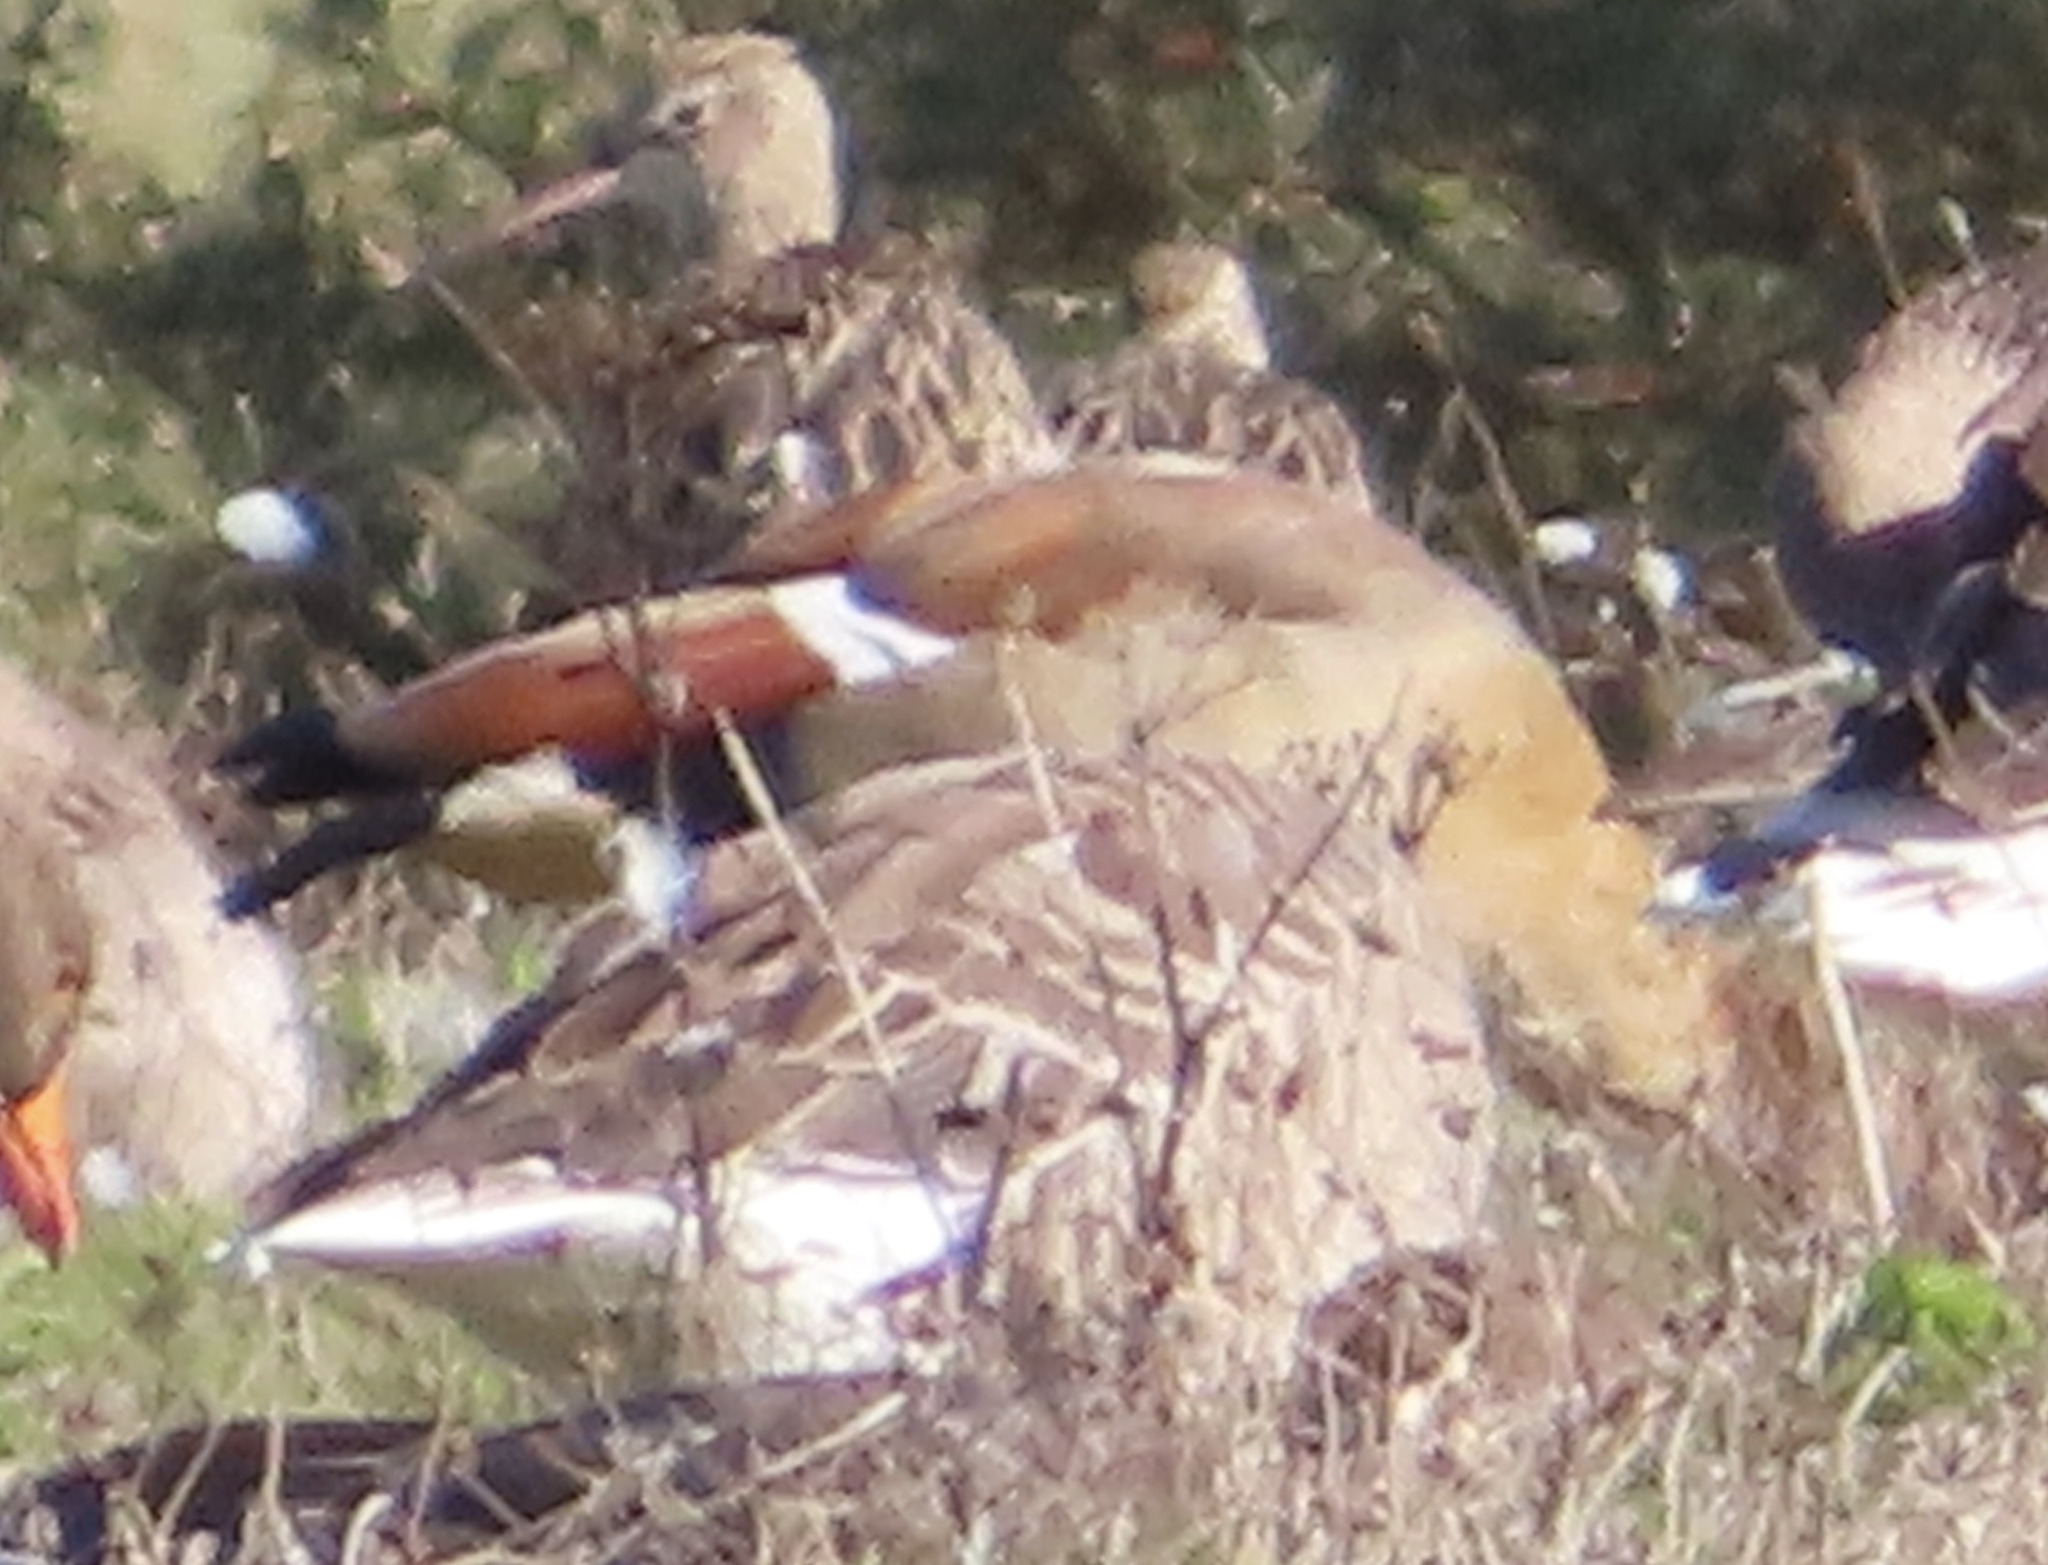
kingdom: Animalia
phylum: Chordata
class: Aves
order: Anseriformes
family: Anatidae
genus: Alopochen
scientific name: Alopochen aegyptiaca
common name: Egyptian goose
